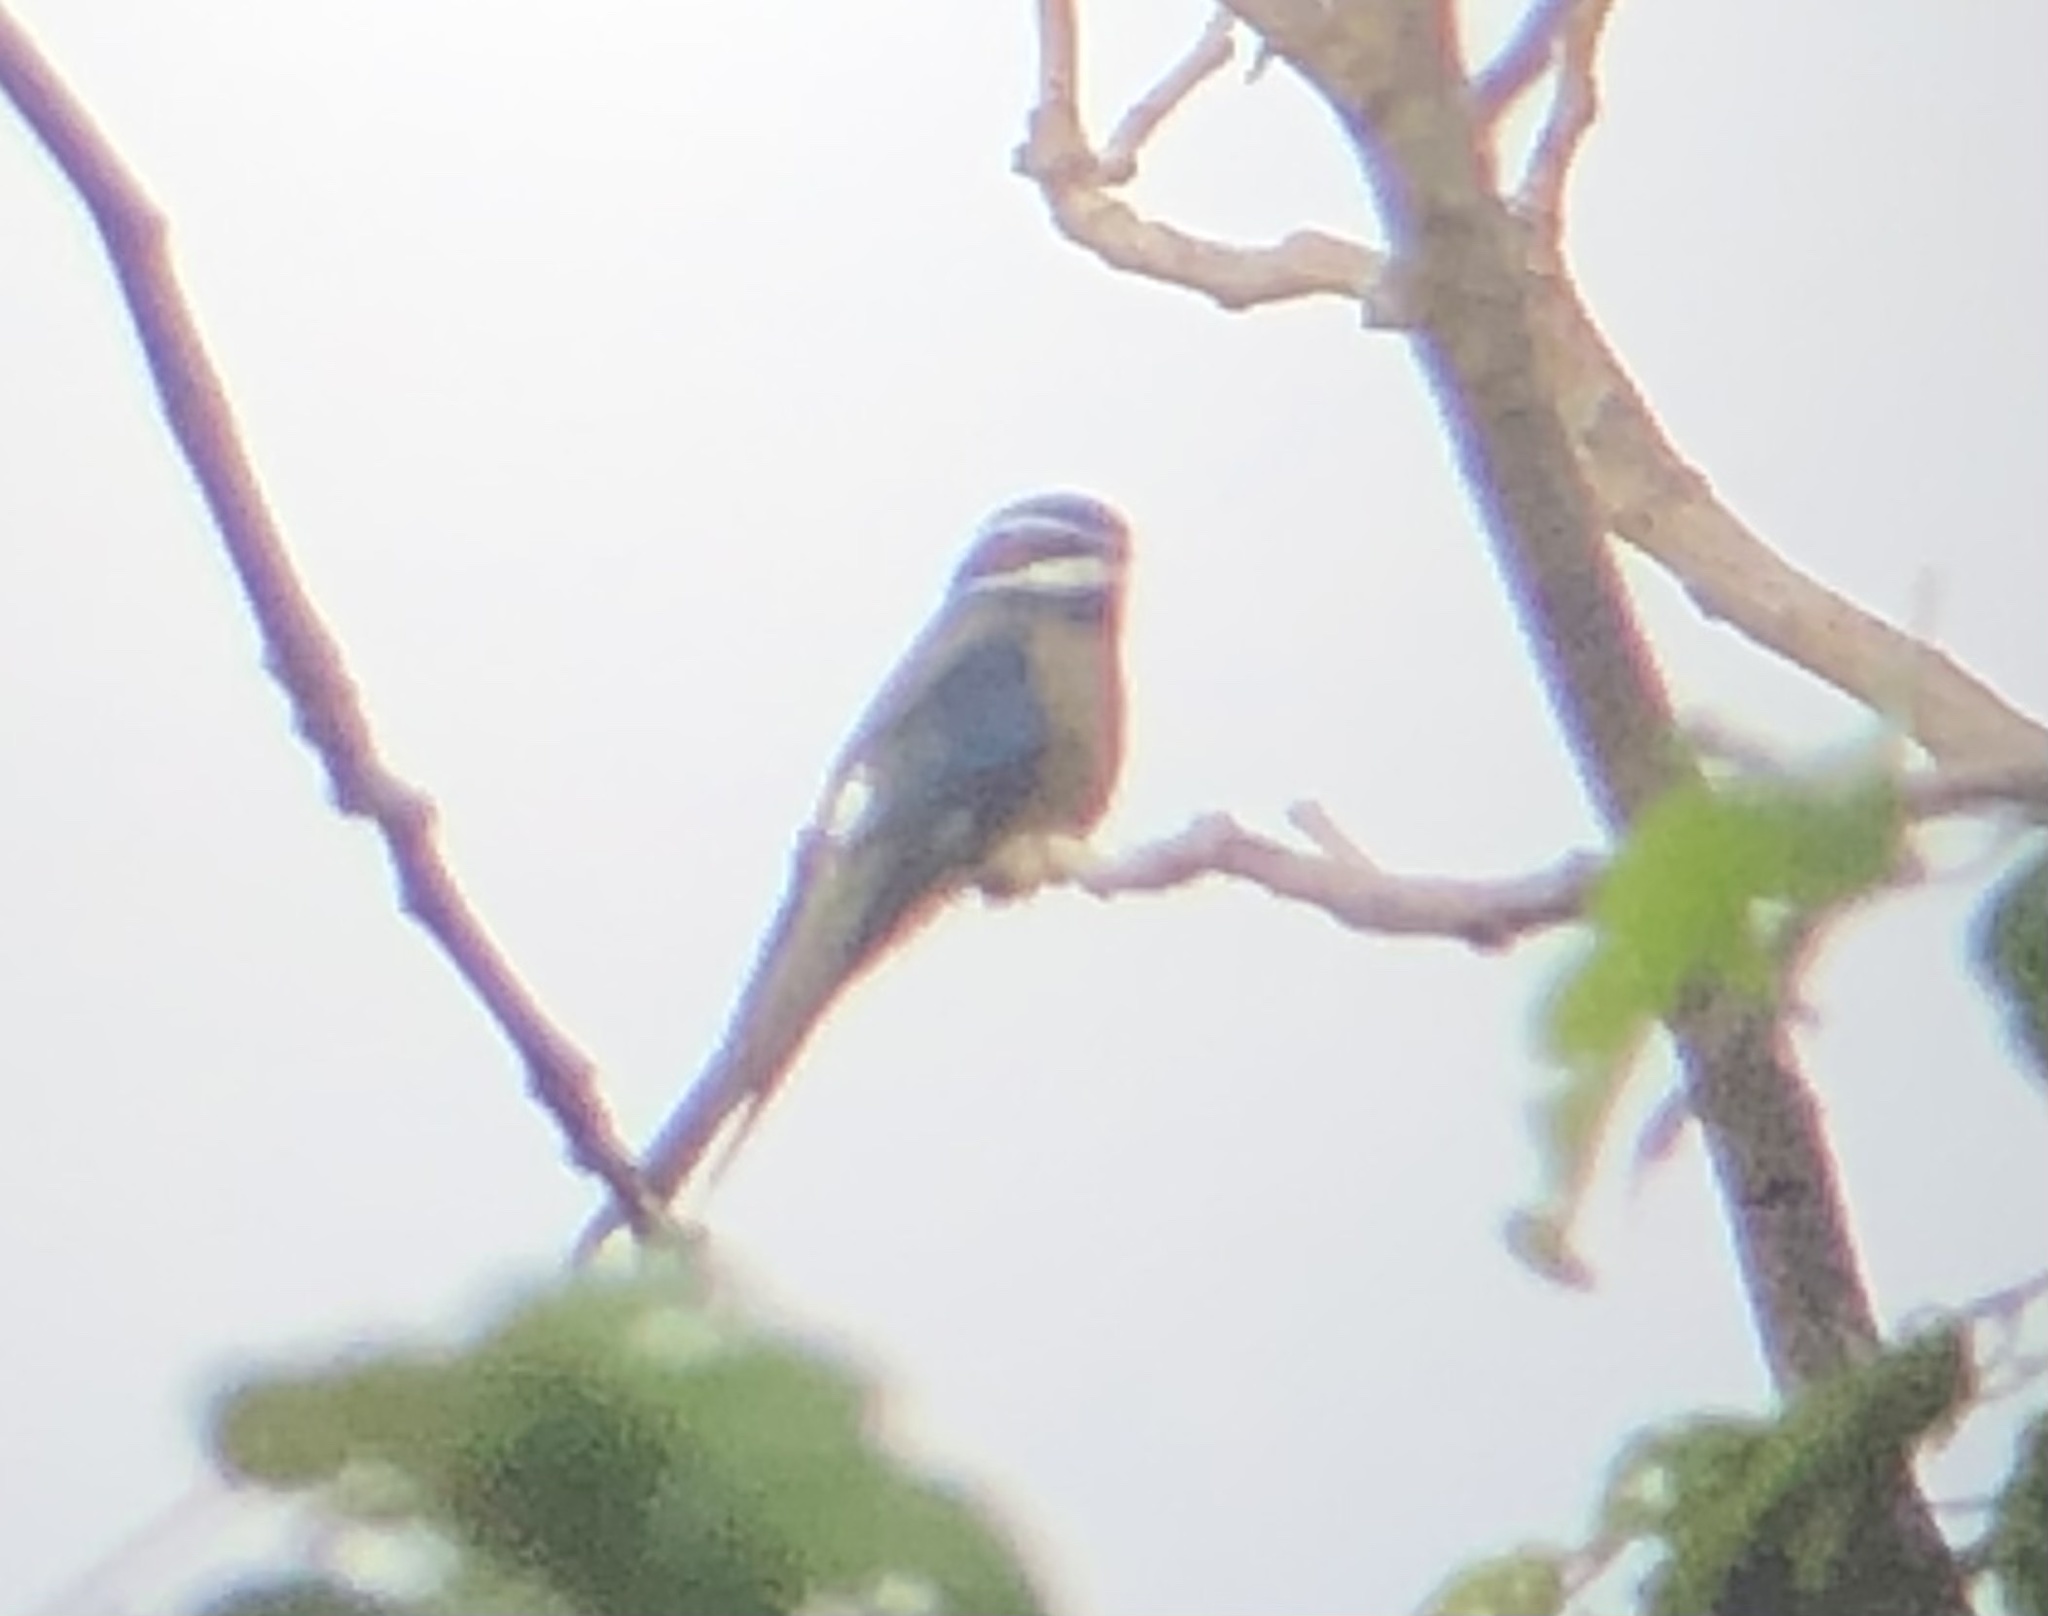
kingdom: Animalia
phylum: Chordata
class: Aves
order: Apodiformes
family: Hemiprocnidae
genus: Hemiprocne
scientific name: Hemiprocne comata
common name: Whiskered treeswift
